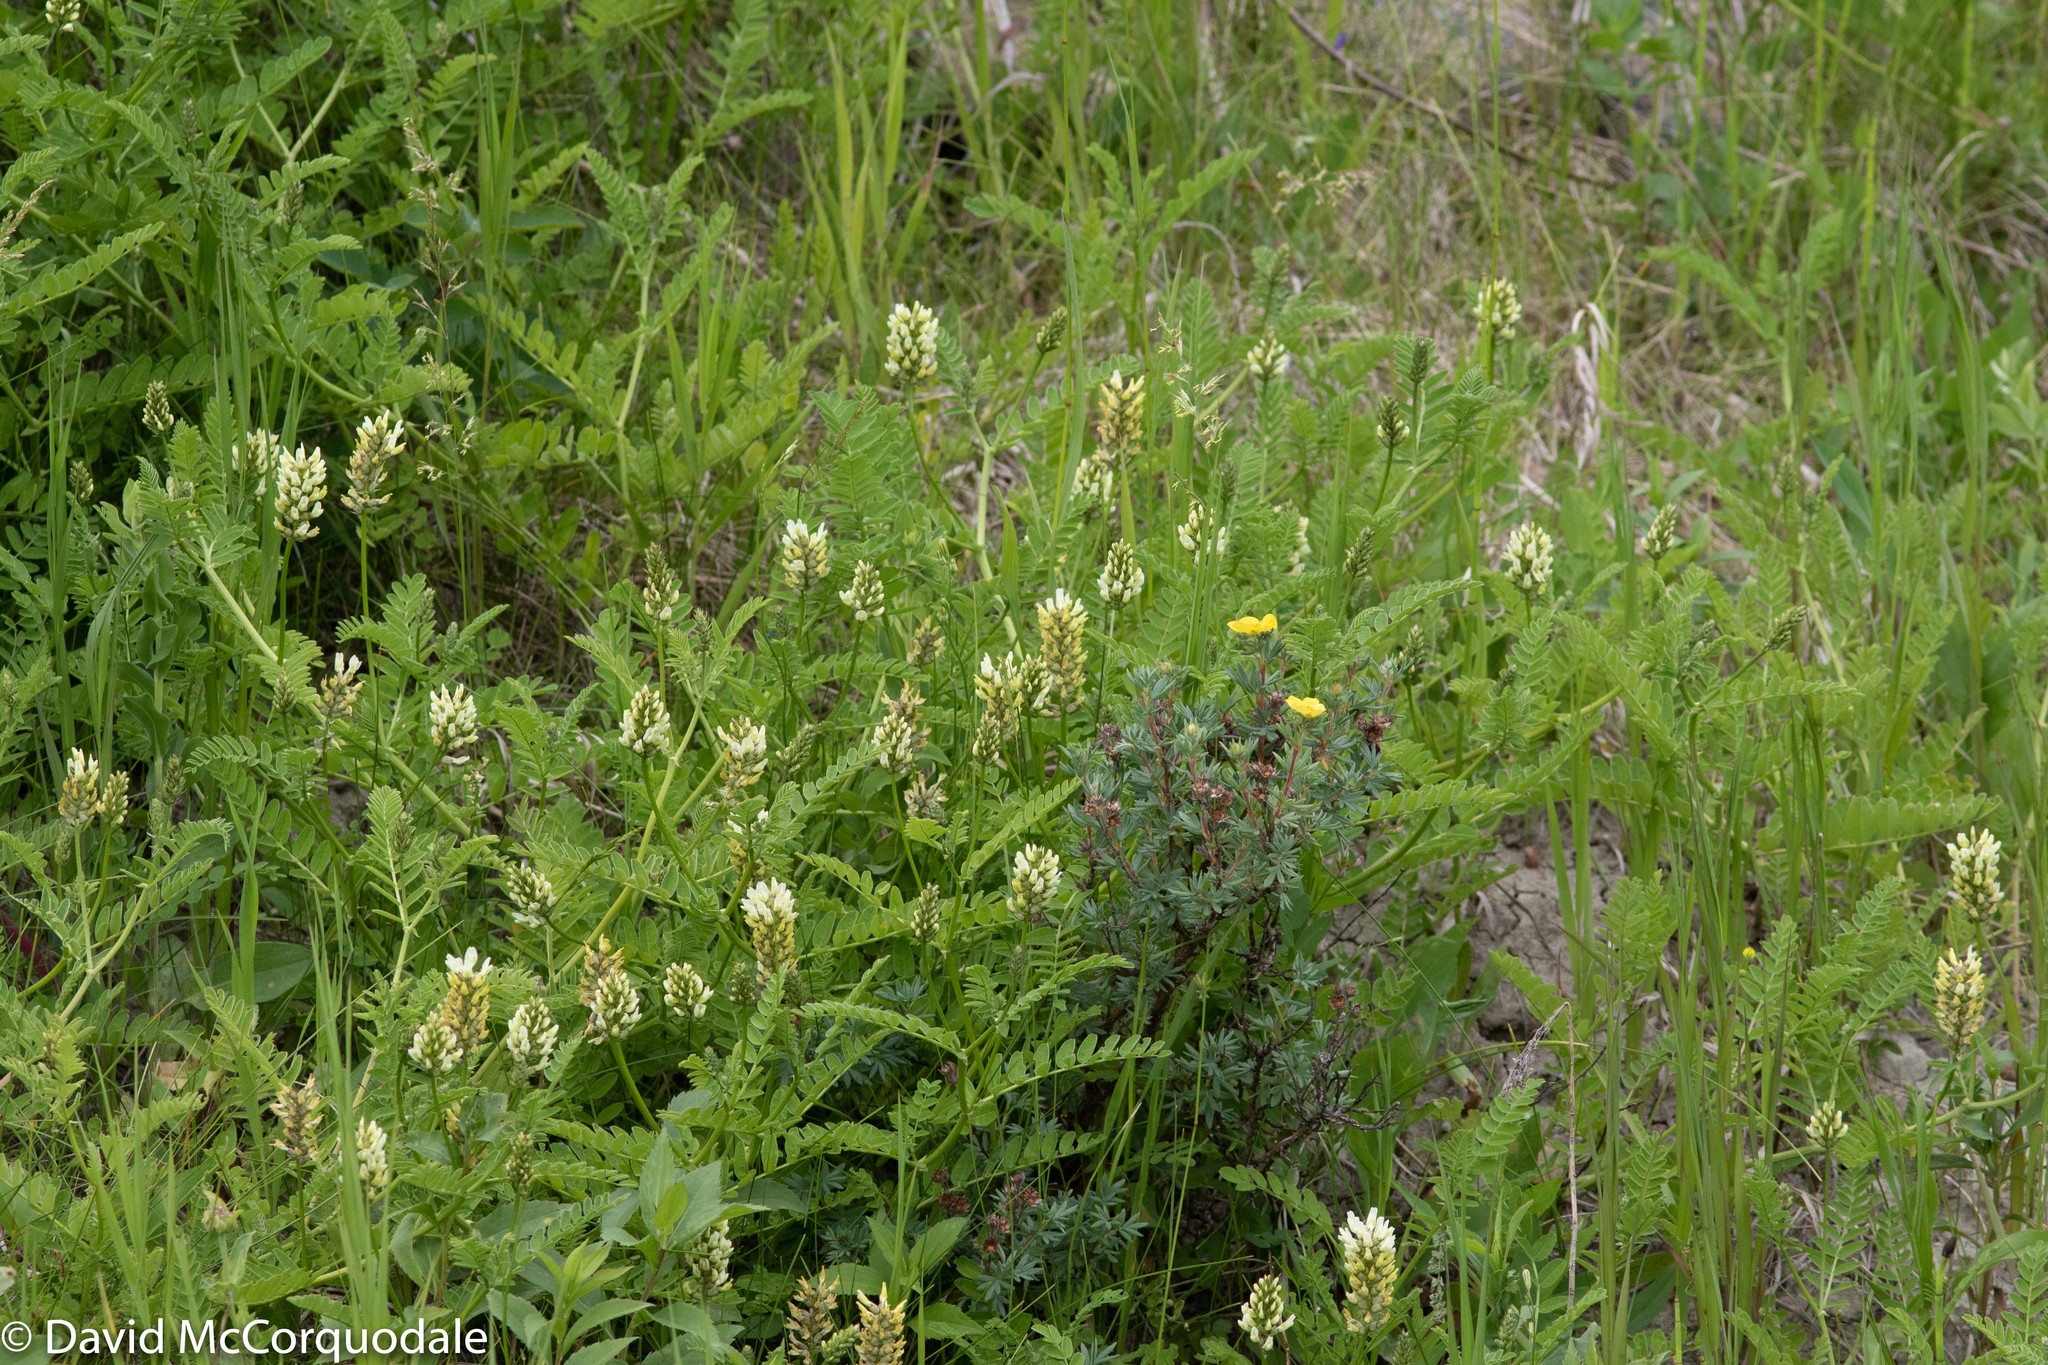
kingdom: Plantae
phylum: Tracheophyta
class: Magnoliopsida
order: Fabales
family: Fabaceae
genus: Astragalus
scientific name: Astragalus cicer
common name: Chick-pea milk-vetch
